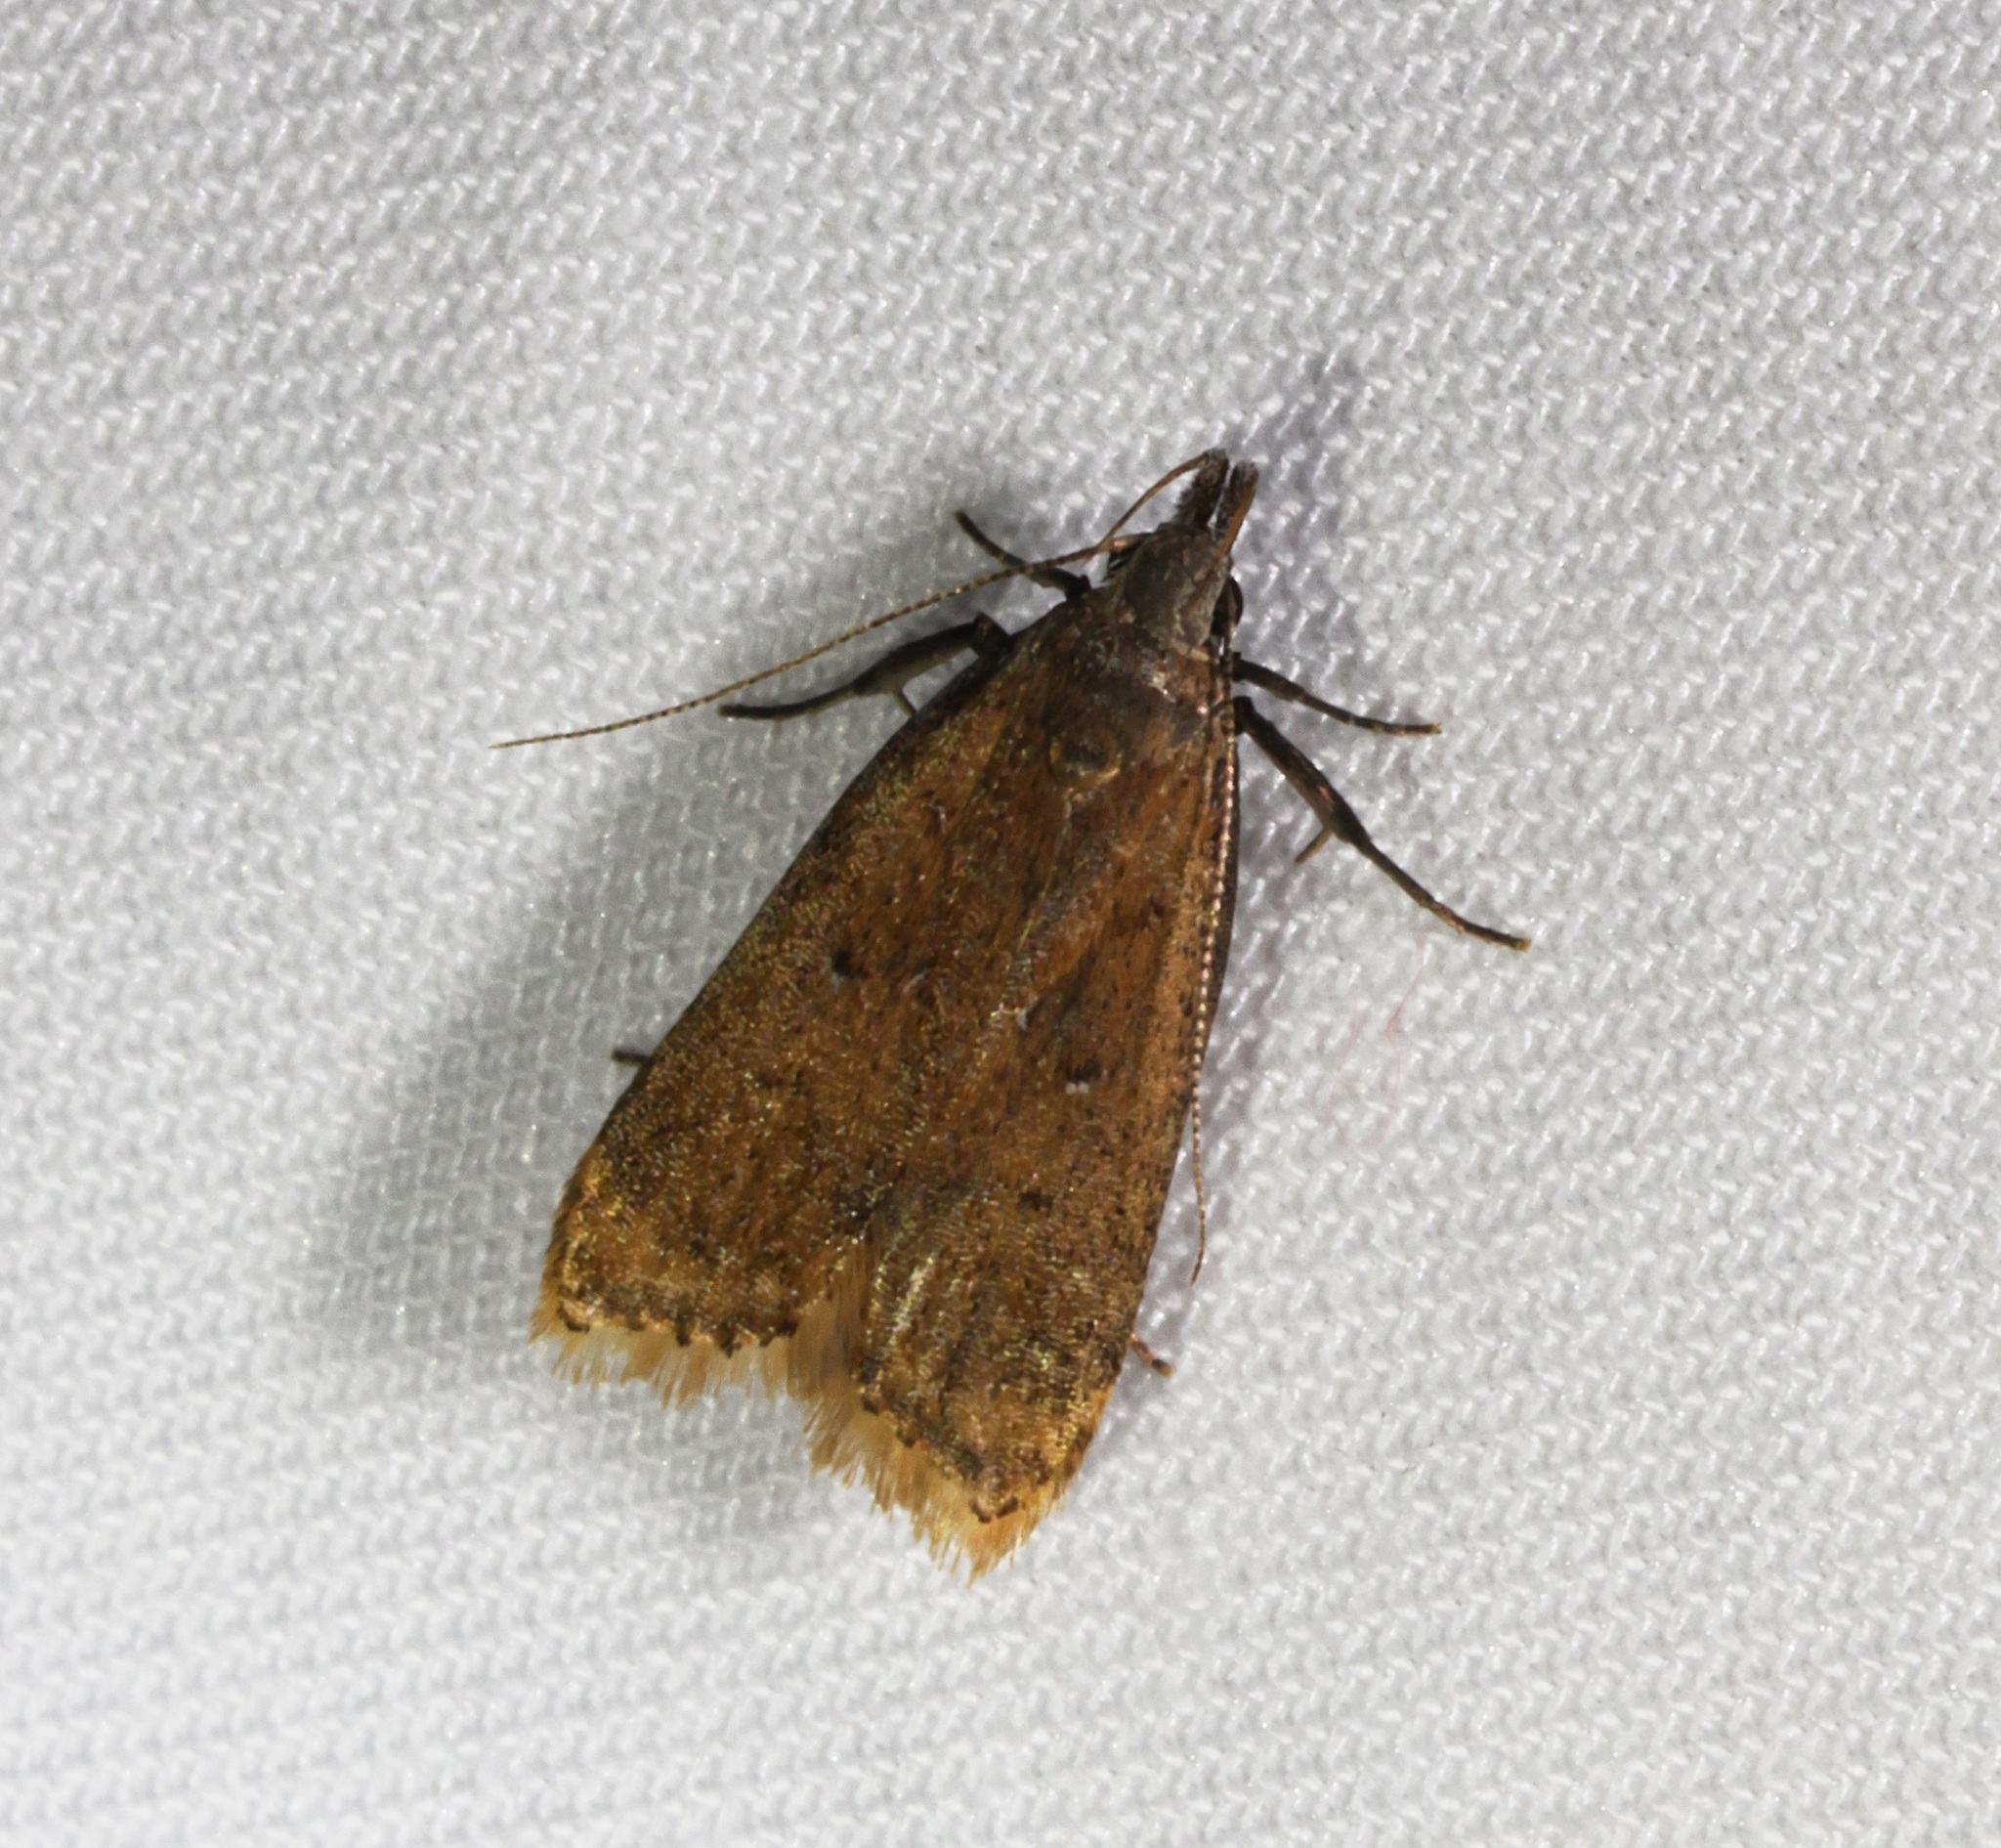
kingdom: Animalia
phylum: Arthropoda
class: Insecta
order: Lepidoptera
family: Gelechiidae
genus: Dichomeris
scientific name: Dichomeris hamulifera
